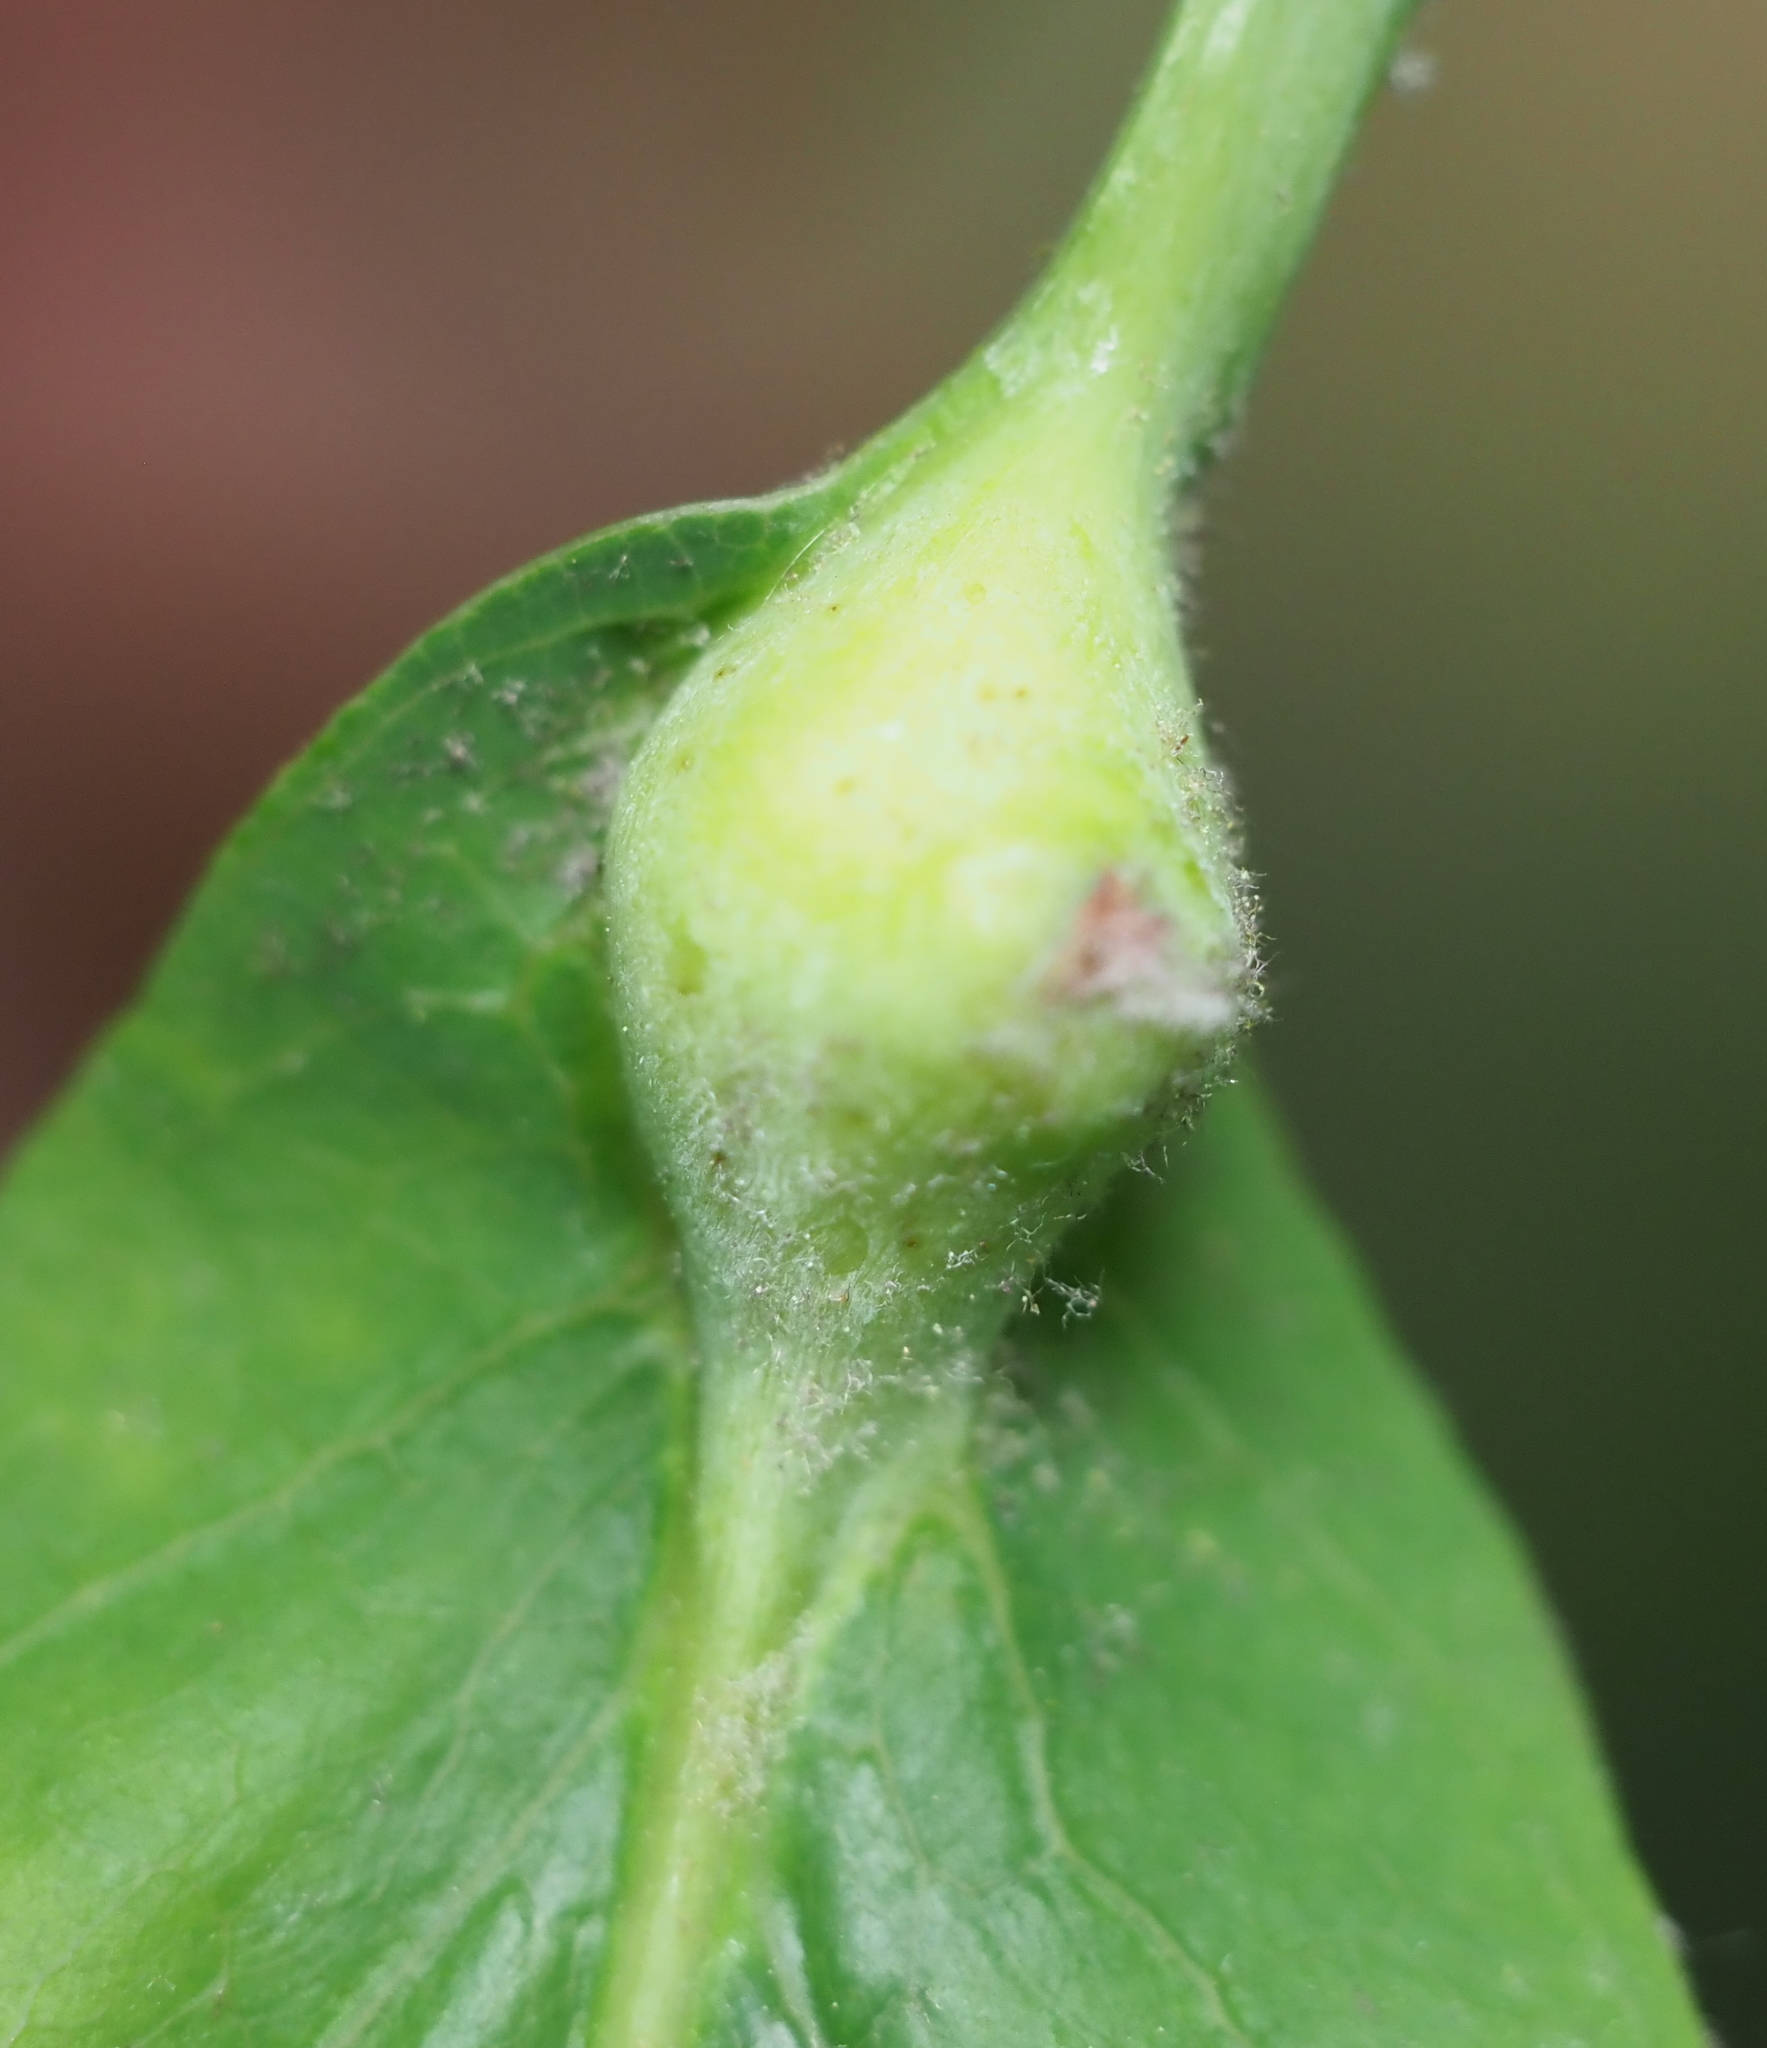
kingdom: Animalia
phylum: Arthropoda
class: Insecta
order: Hymenoptera
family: Cynipidae
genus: Andricus
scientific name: Andricus
